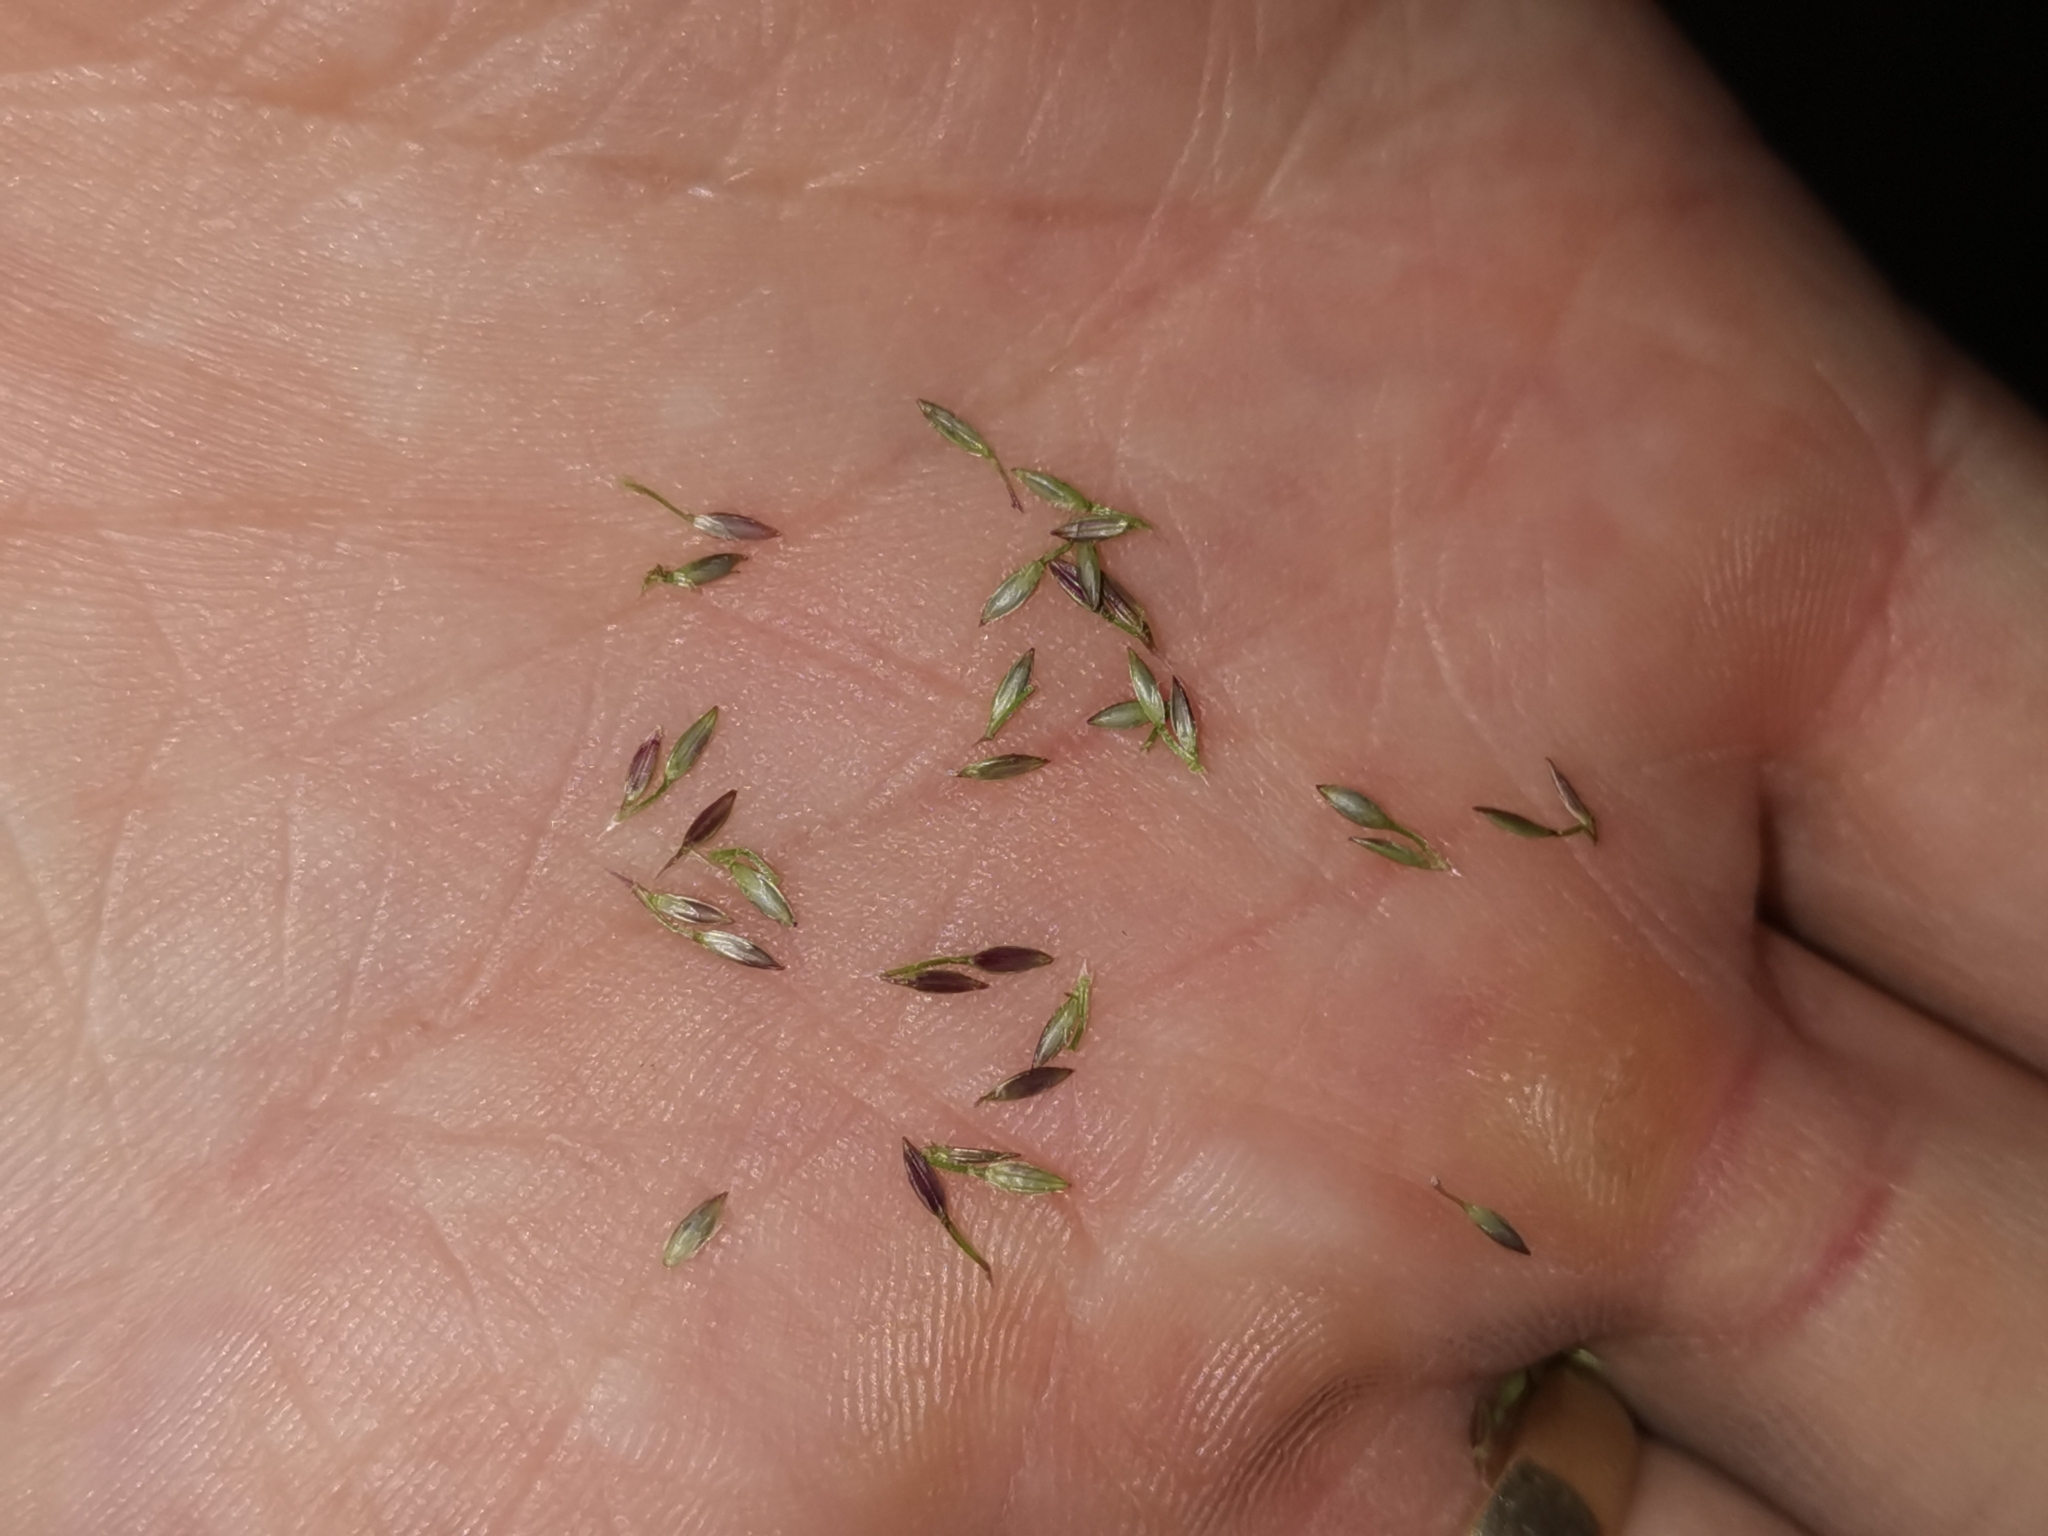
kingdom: Plantae
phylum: Tracheophyta
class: Liliopsida
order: Poales
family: Poaceae
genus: Digitaria
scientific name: Digitaria sanguinalis
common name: Hairy crabgrass
